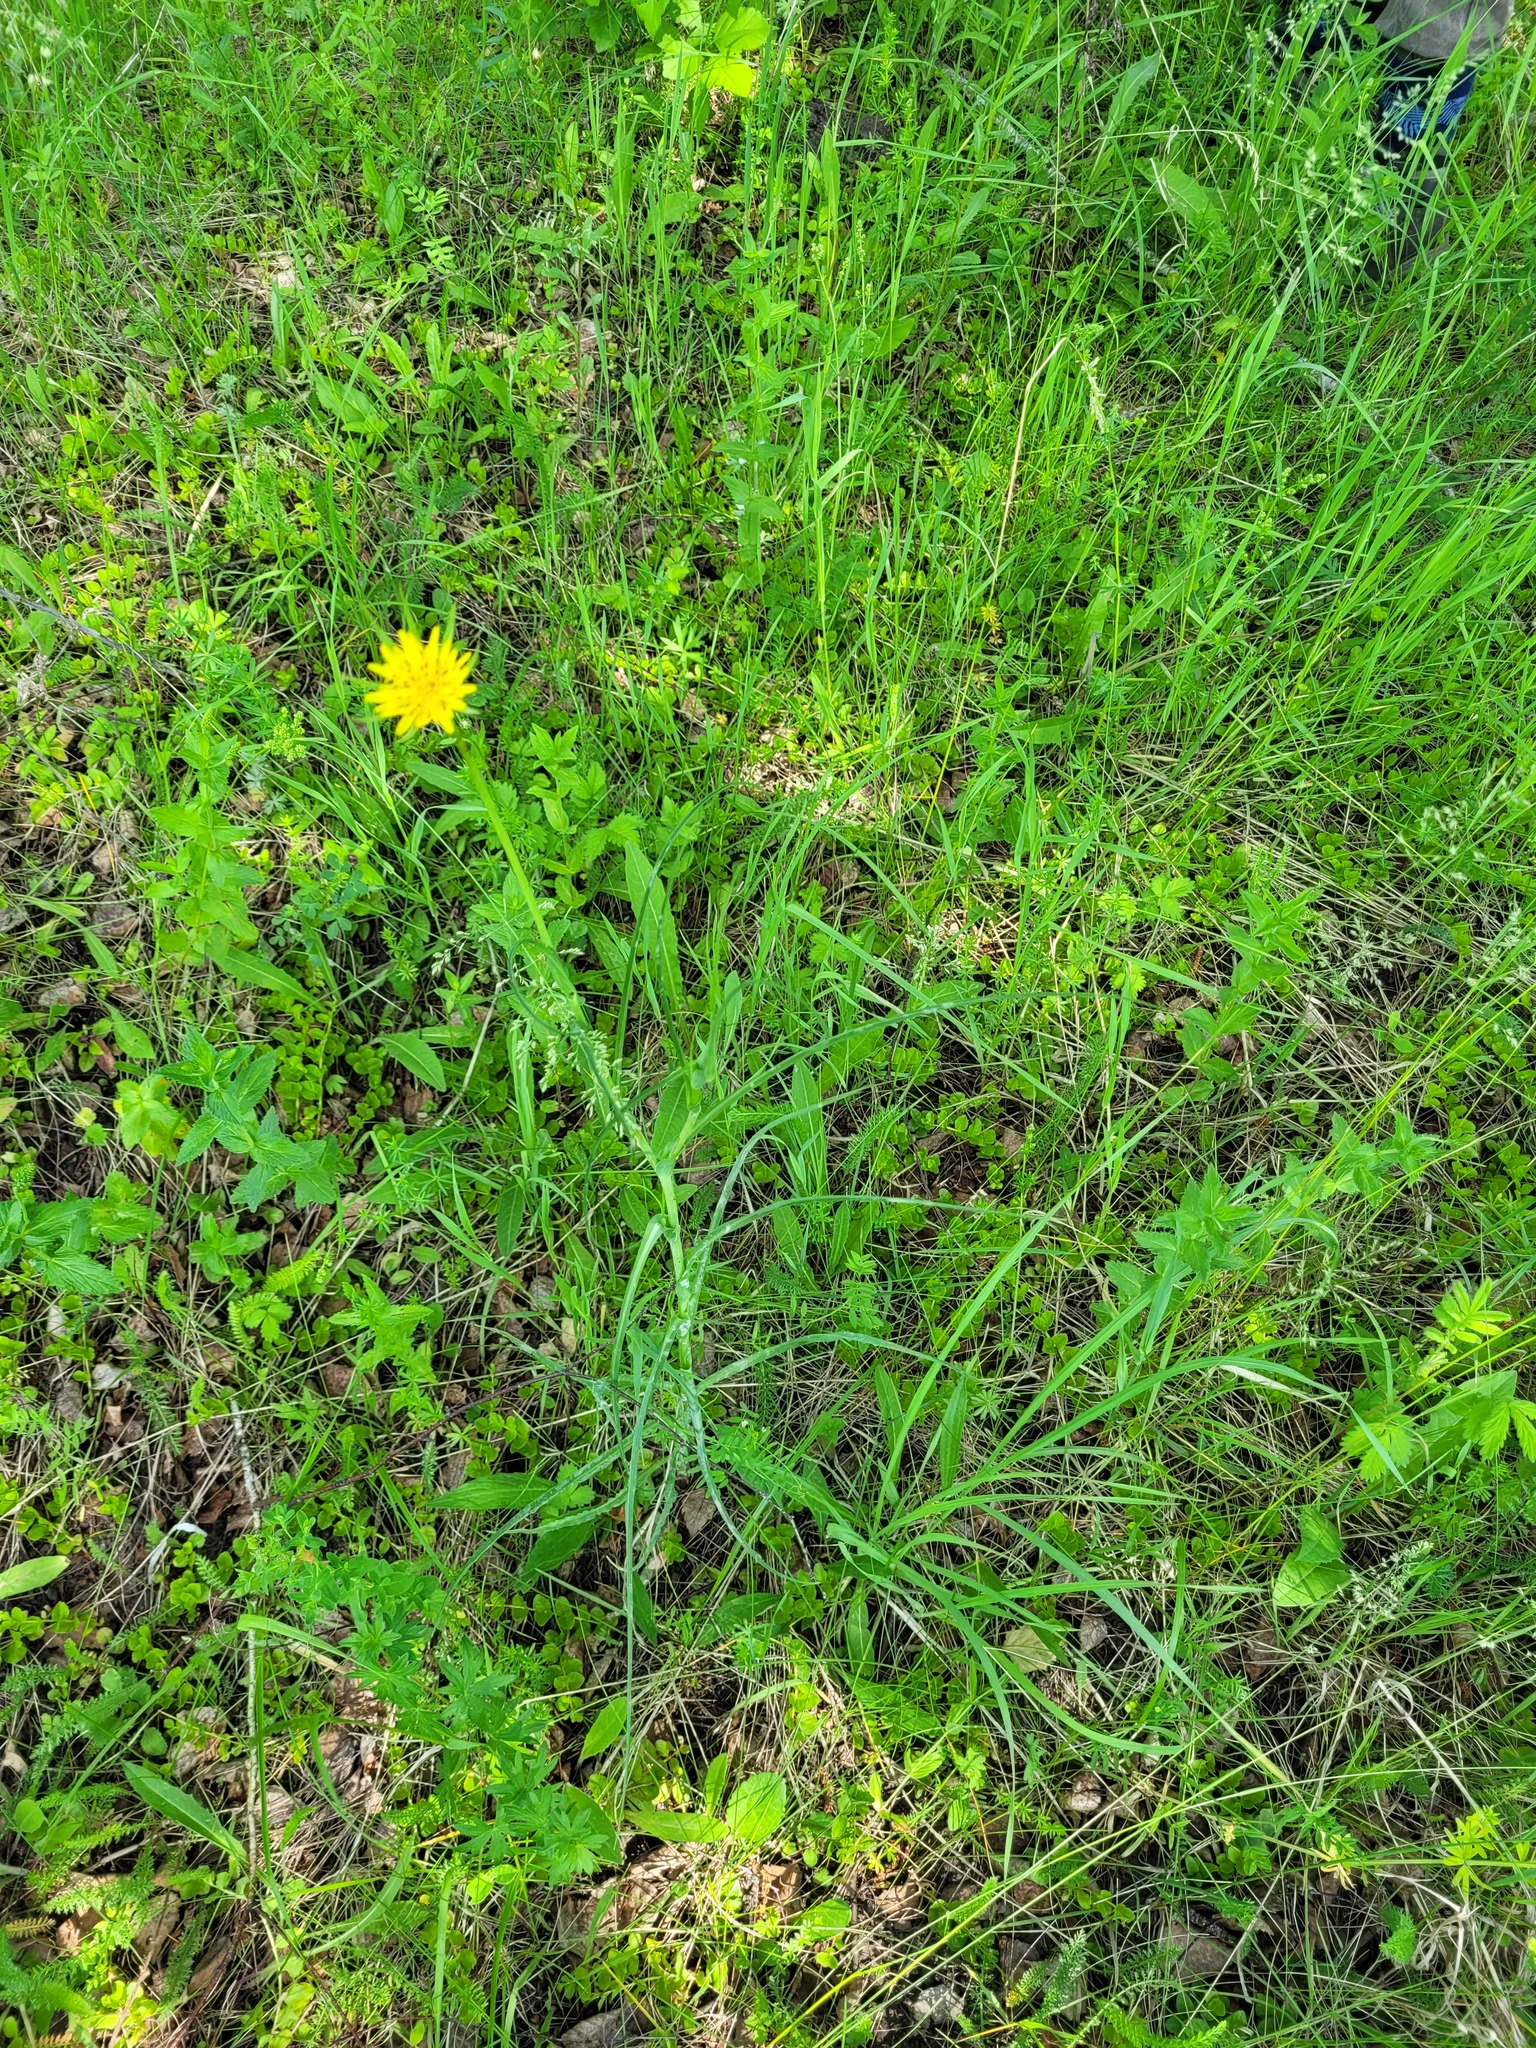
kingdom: Plantae
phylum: Tracheophyta
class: Magnoliopsida
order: Asterales
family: Asteraceae
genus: Tragopogon
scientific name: Tragopogon pratensis
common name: Goat's-beard
